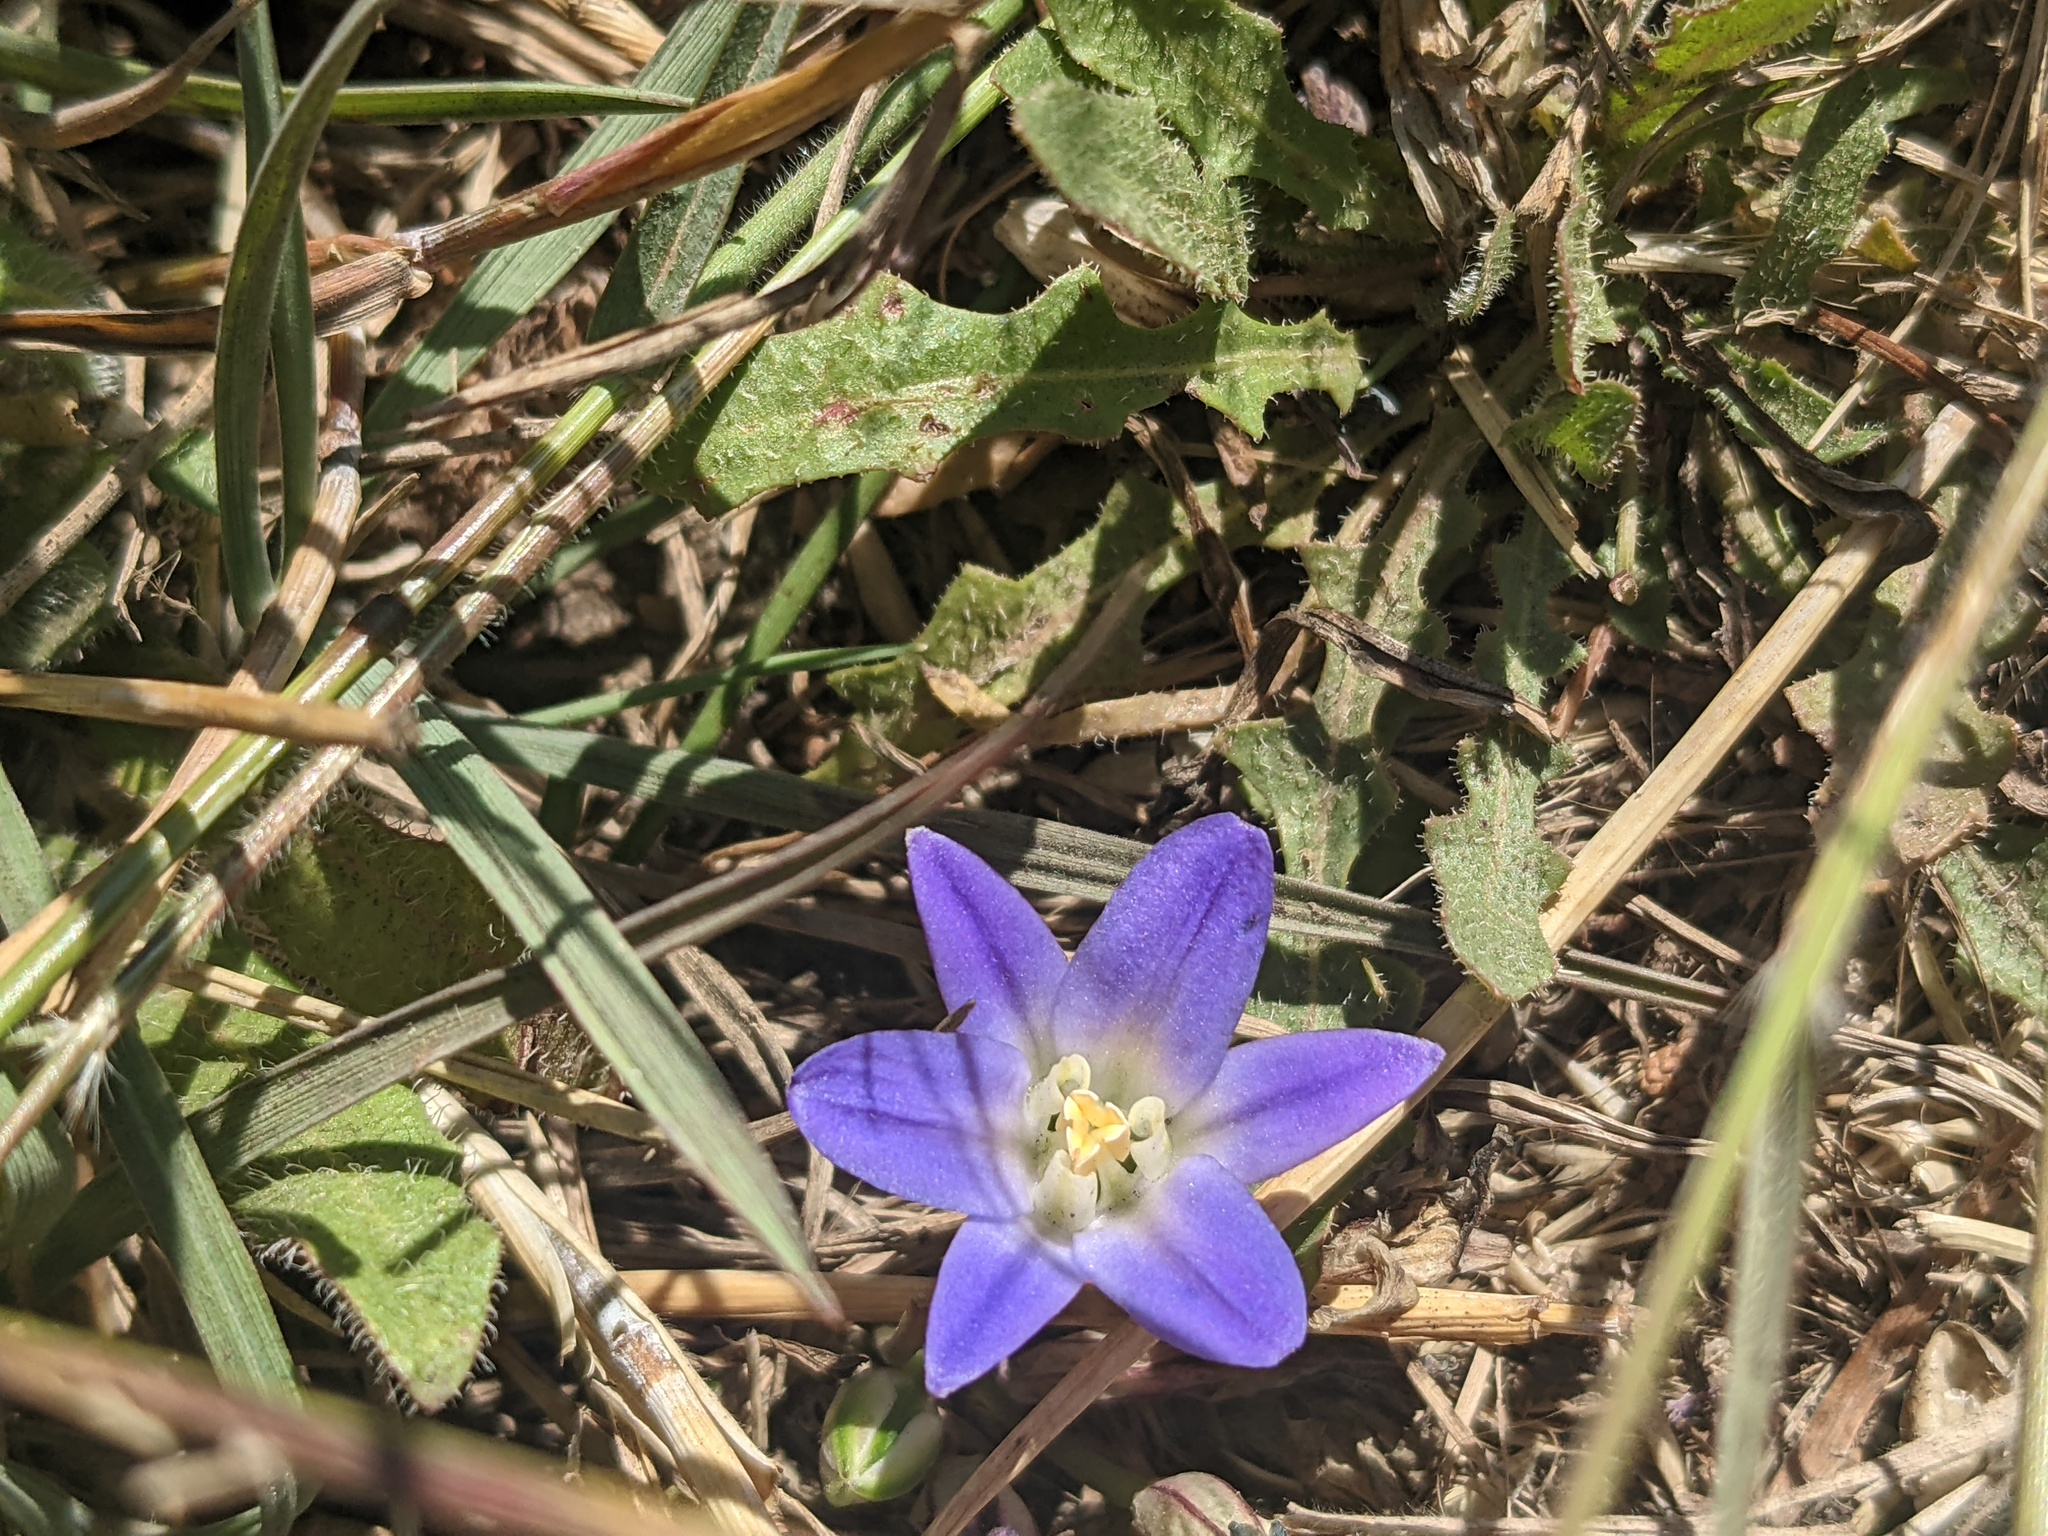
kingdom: Plantae
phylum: Tracheophyta
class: Liliopsida
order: Asparagales
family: Asparagaceae
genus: Brodiaea
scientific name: Brodiaea terrestris
